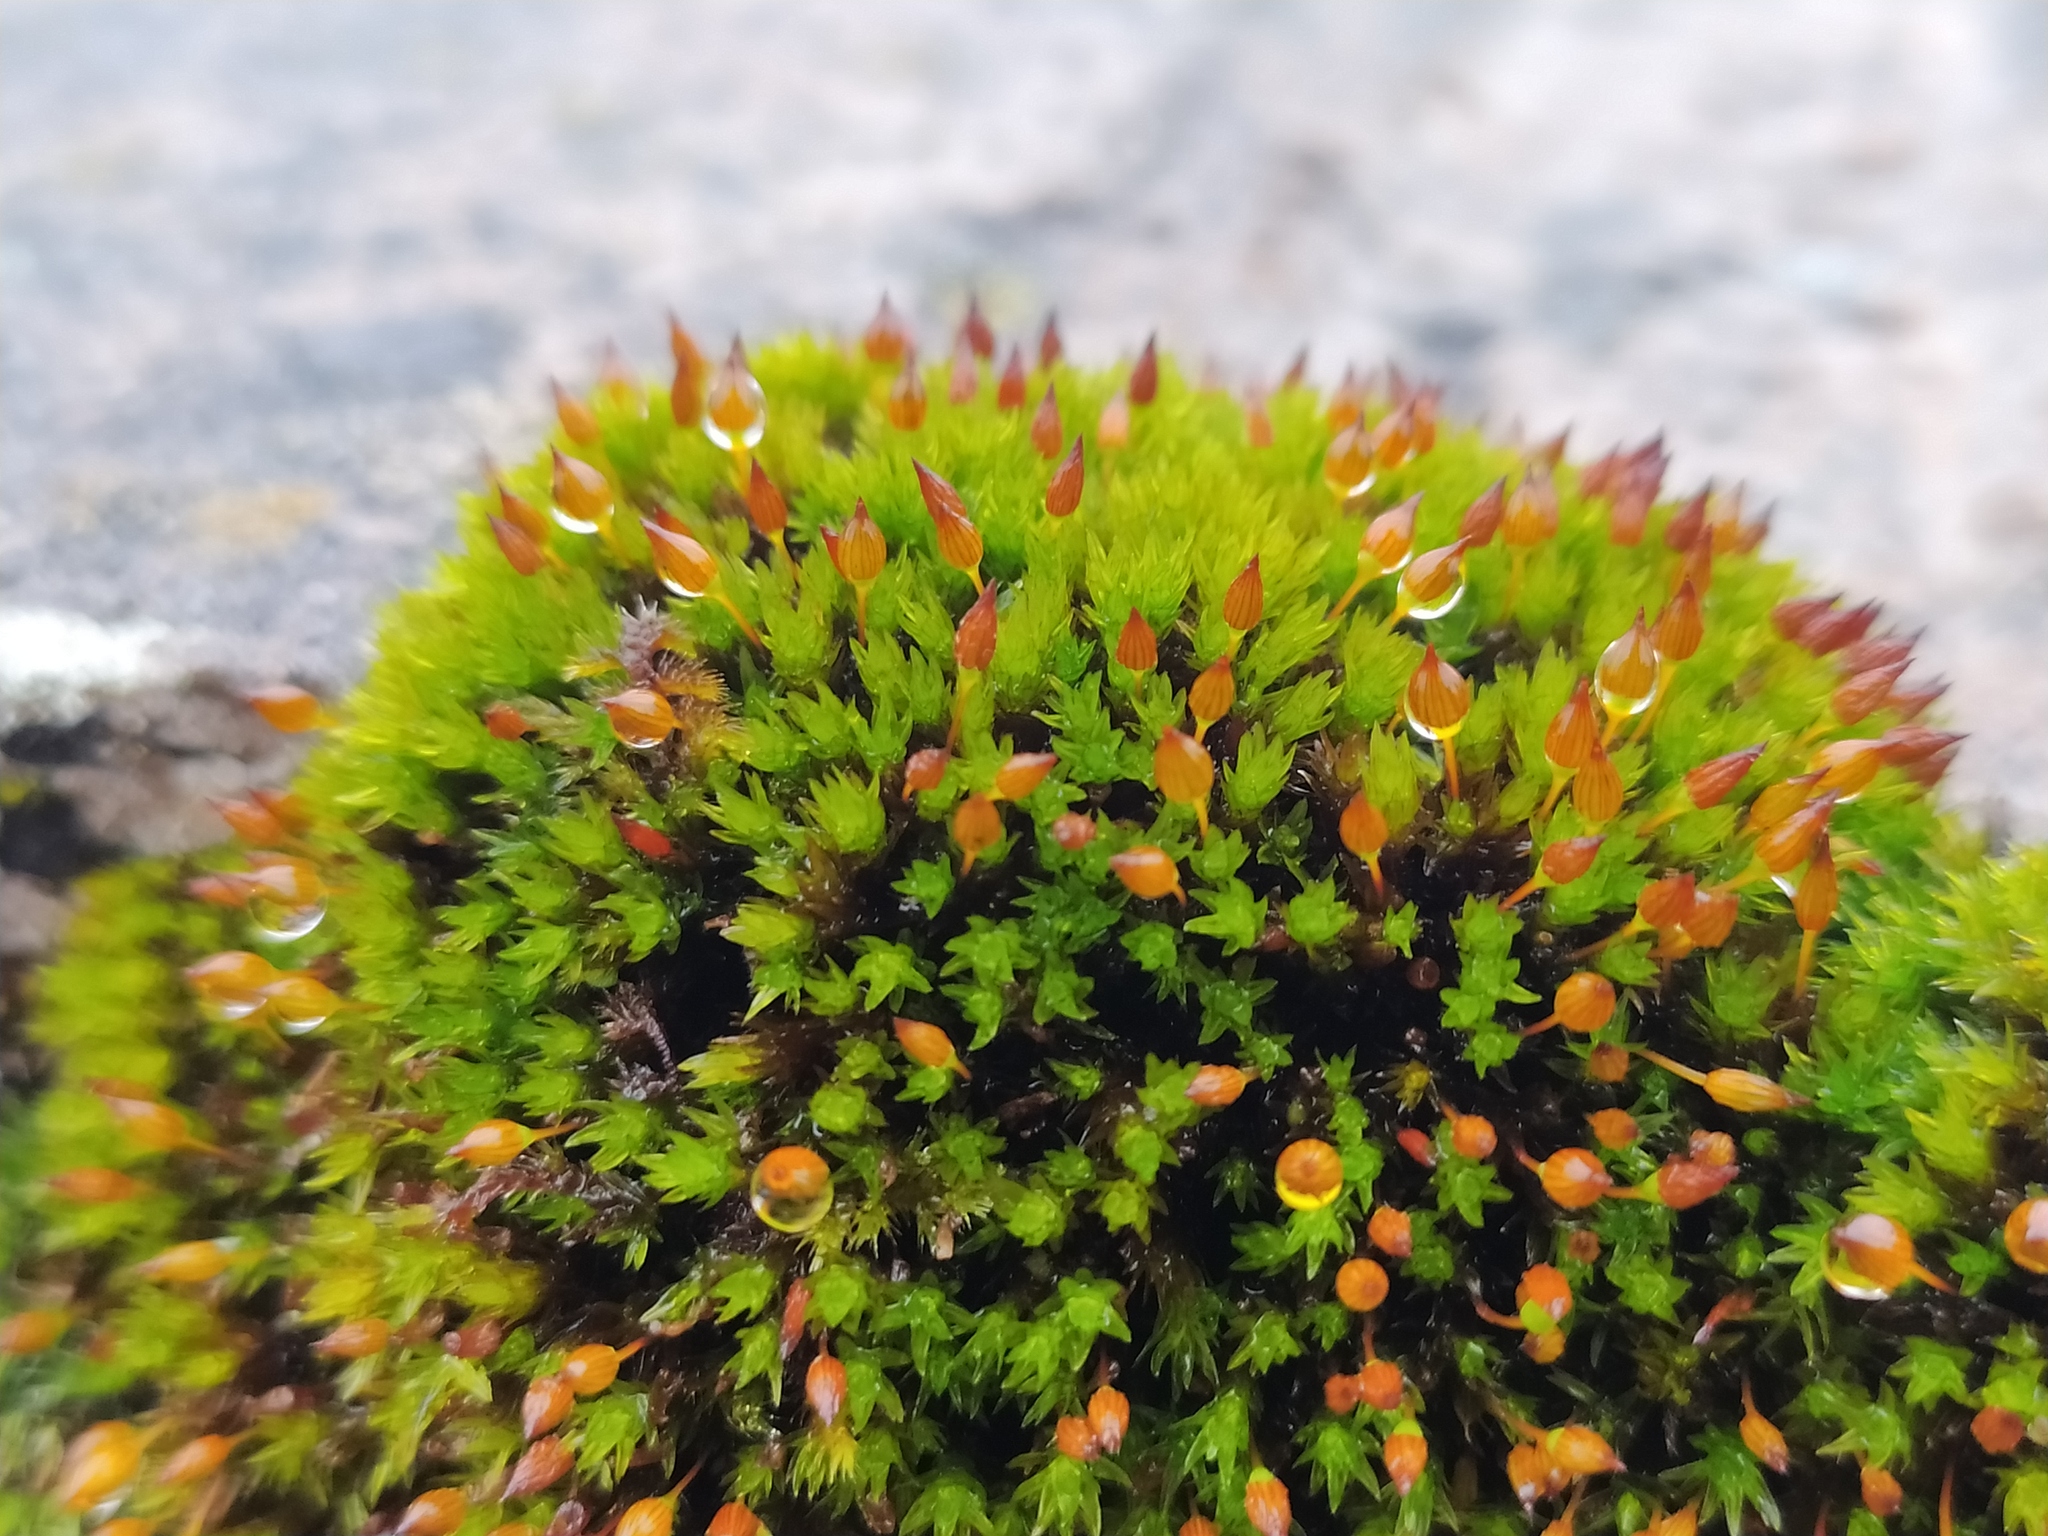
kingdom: Plantae
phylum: Bryophyta
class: Bryopsida
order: Orthotrichales
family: Orthotrichaceae
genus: Orthotrichum
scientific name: Orthotrichum anomalum
